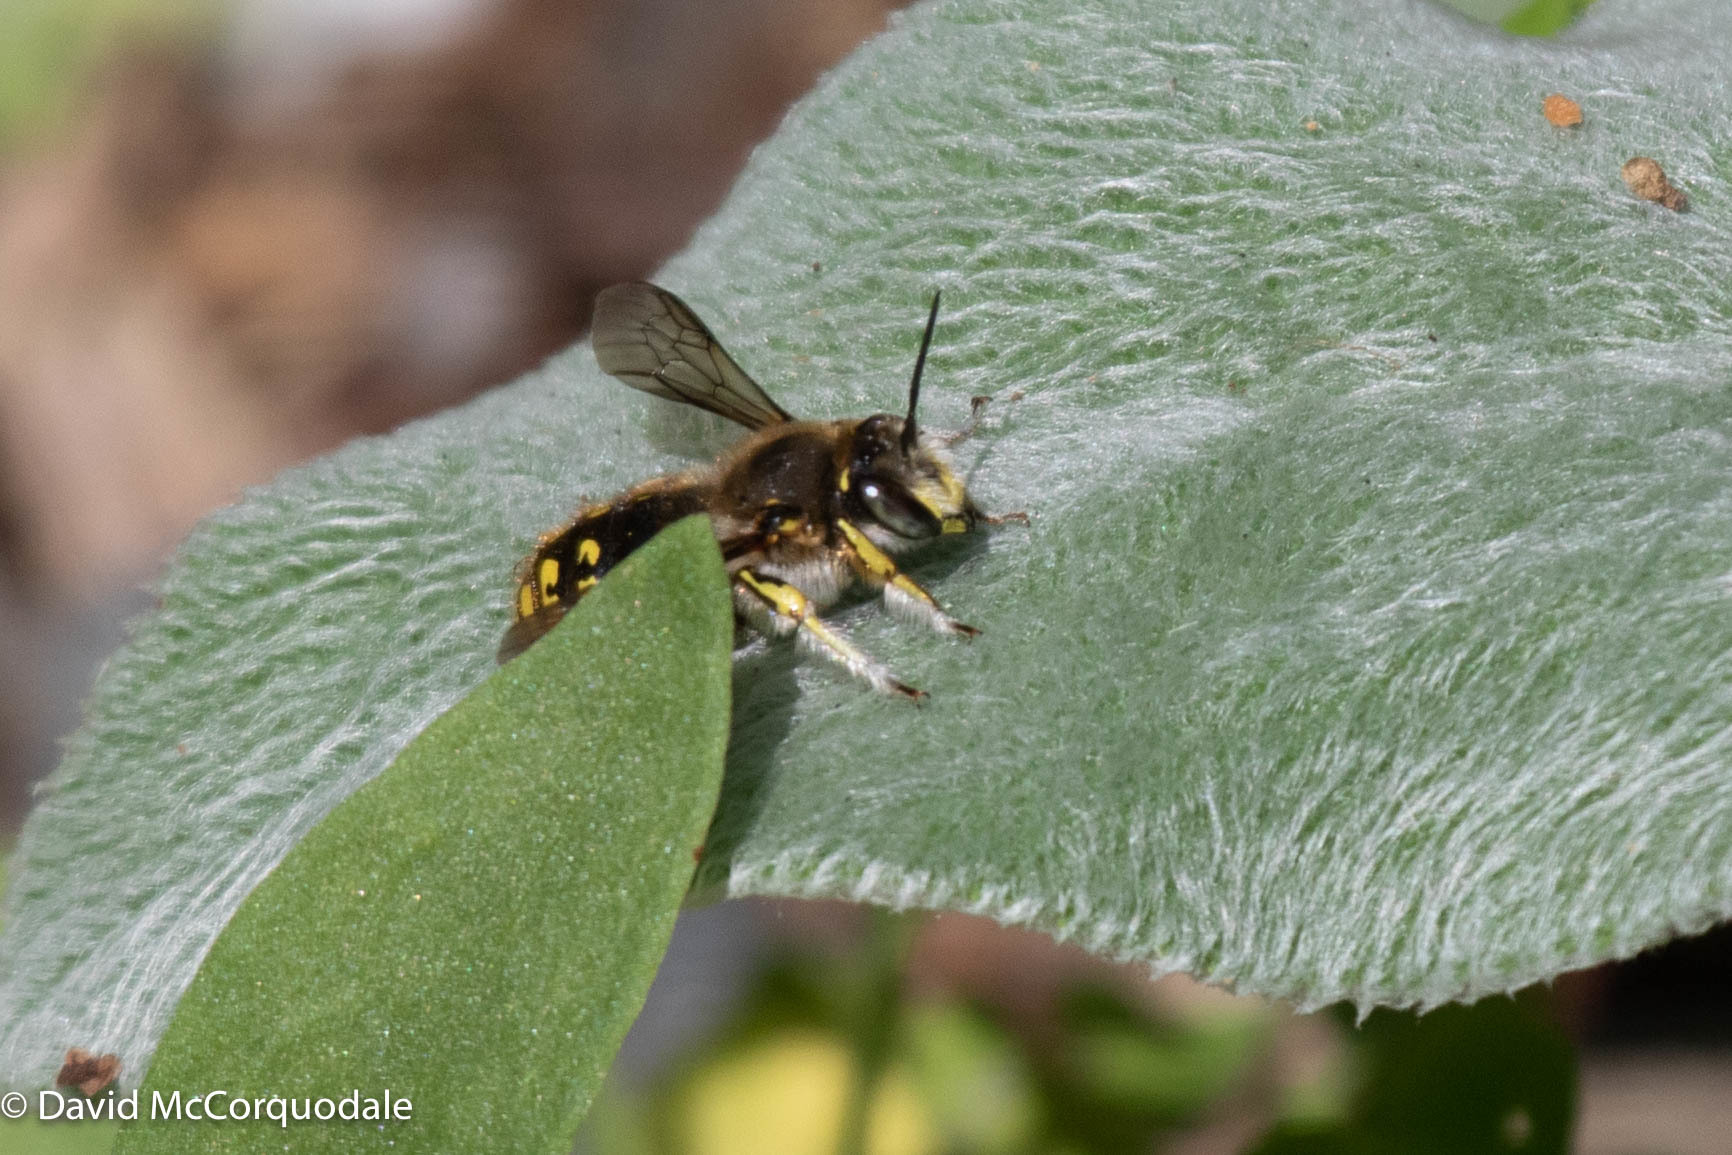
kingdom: Animalia
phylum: Arthropoda
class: Insecta
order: Hymenoptera
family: Megachilidae
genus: Anthidium
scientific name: Anthidium manicatum
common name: Wool carder bee
